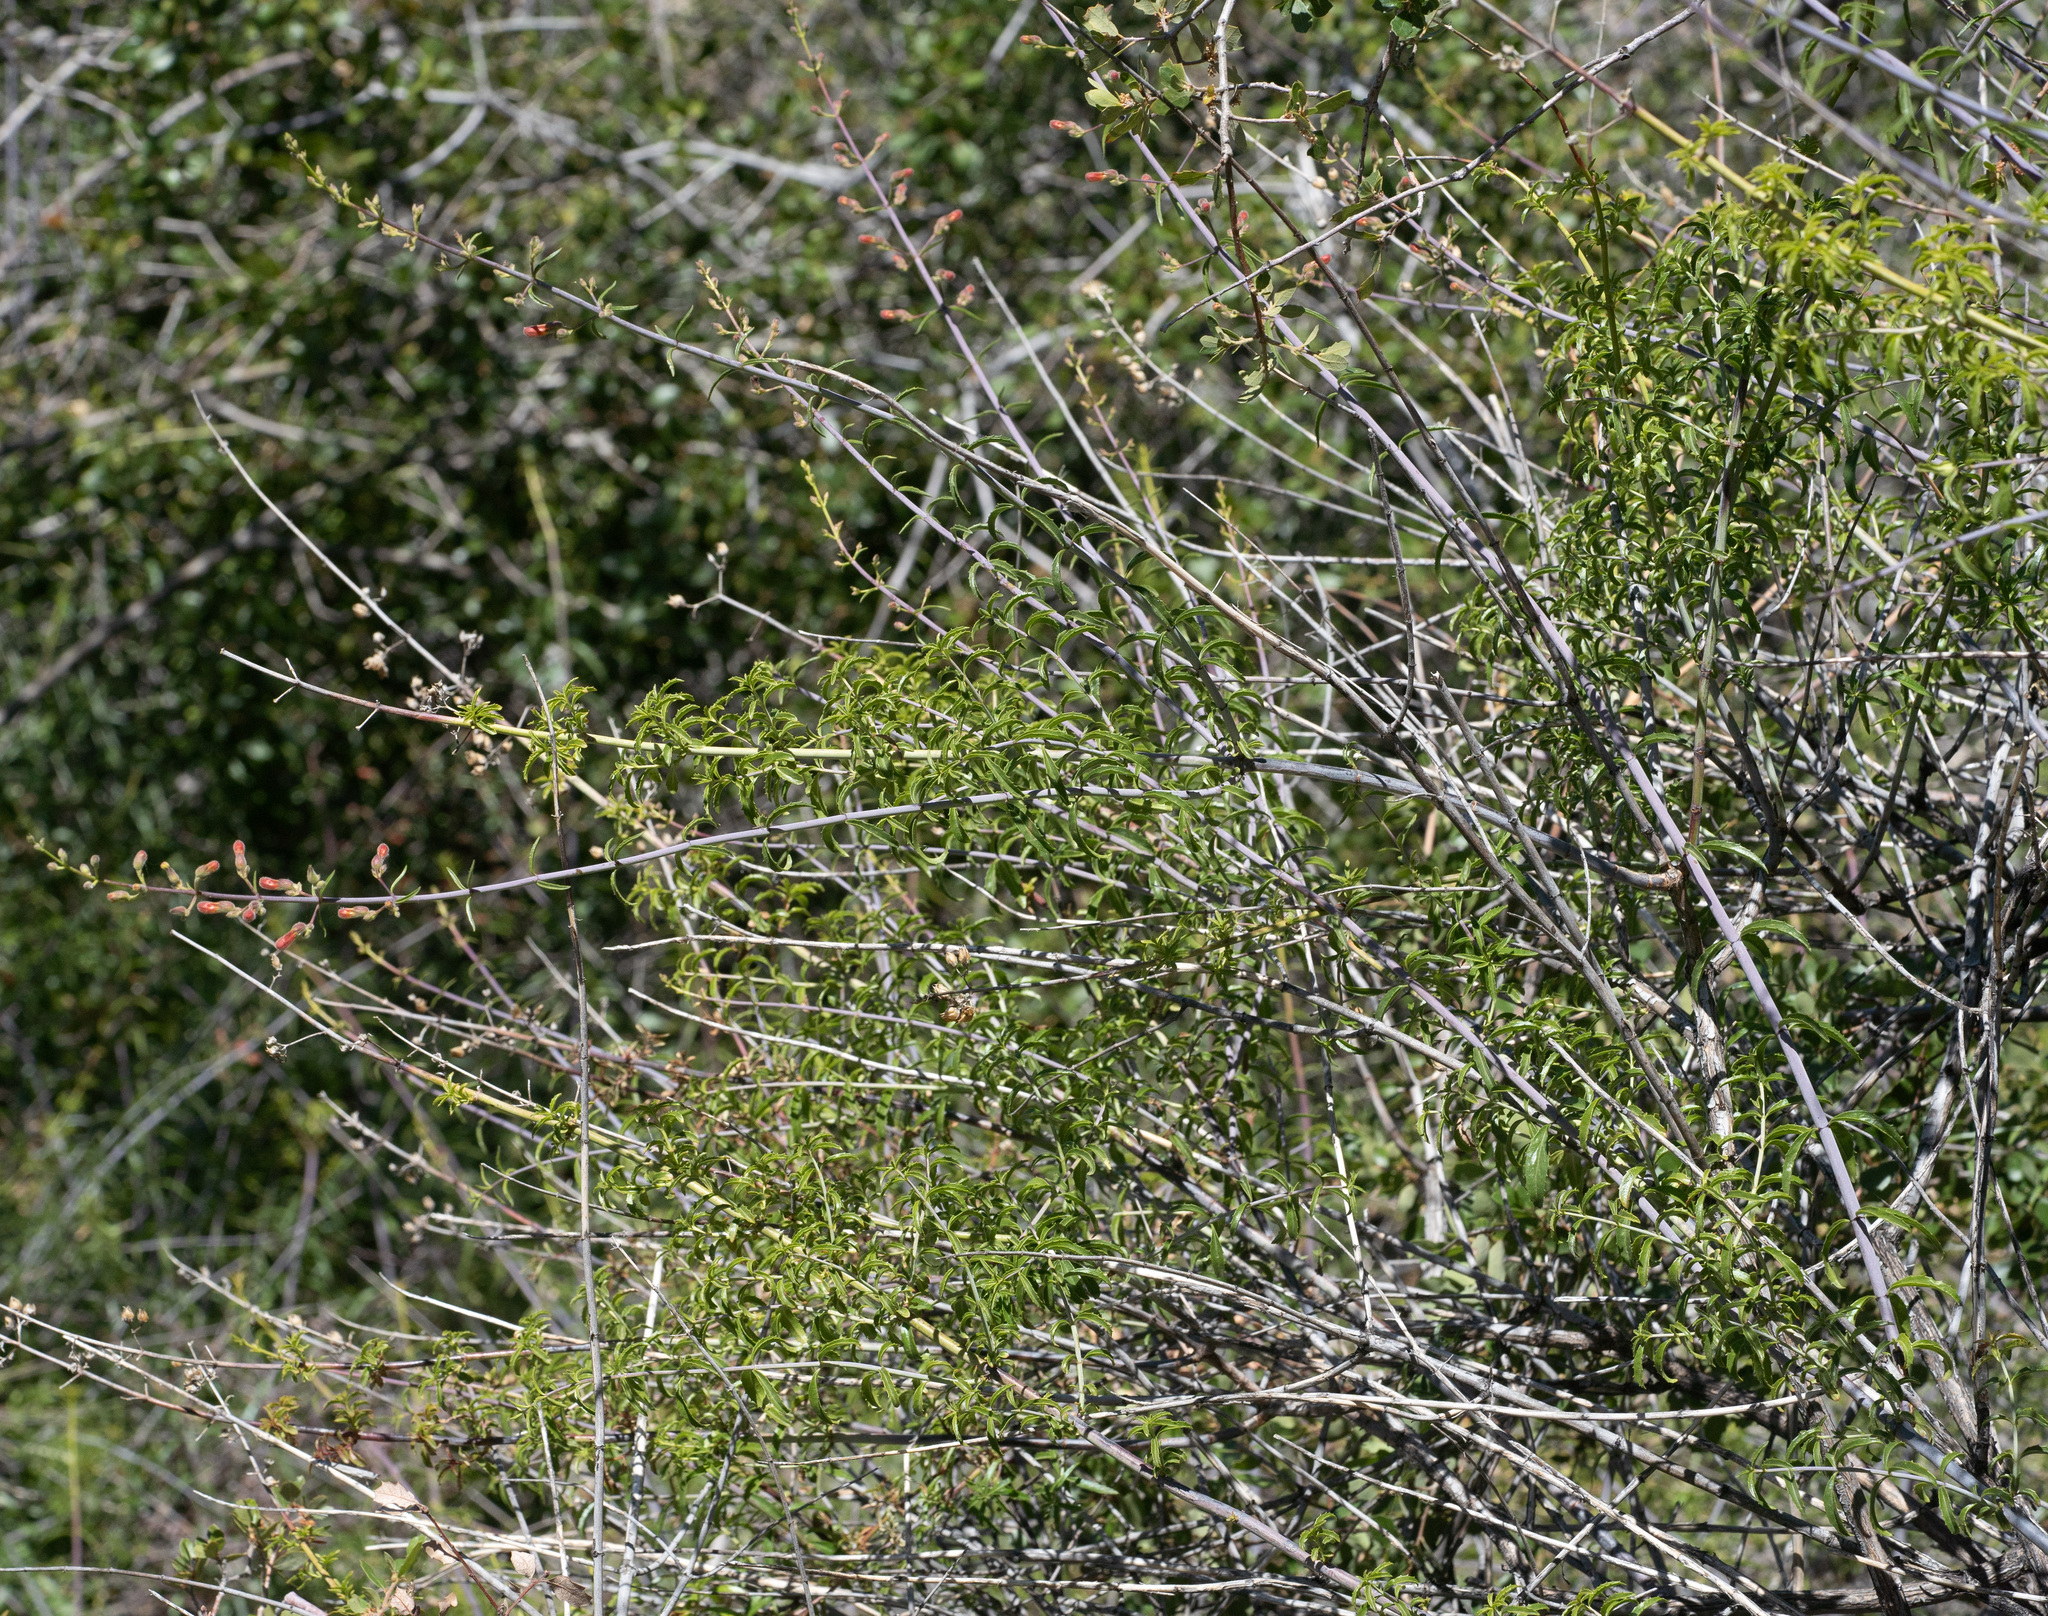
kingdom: Plantae
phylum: Tracheophyta
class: Magnoliopsida
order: Lamiales
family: Plantaginaceae
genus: Keckiella
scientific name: Keckiella ternata
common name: Scarlet keckiella
